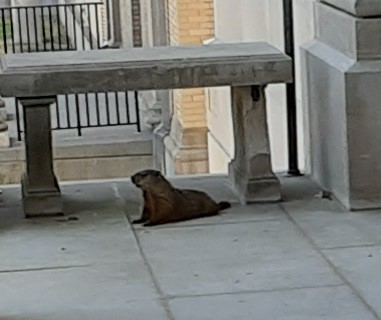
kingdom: Animalia
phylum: Chordata
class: Mammalia
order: Rodentia
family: Sciuridae
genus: Marmota
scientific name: Marmota monax
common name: Groundhog
